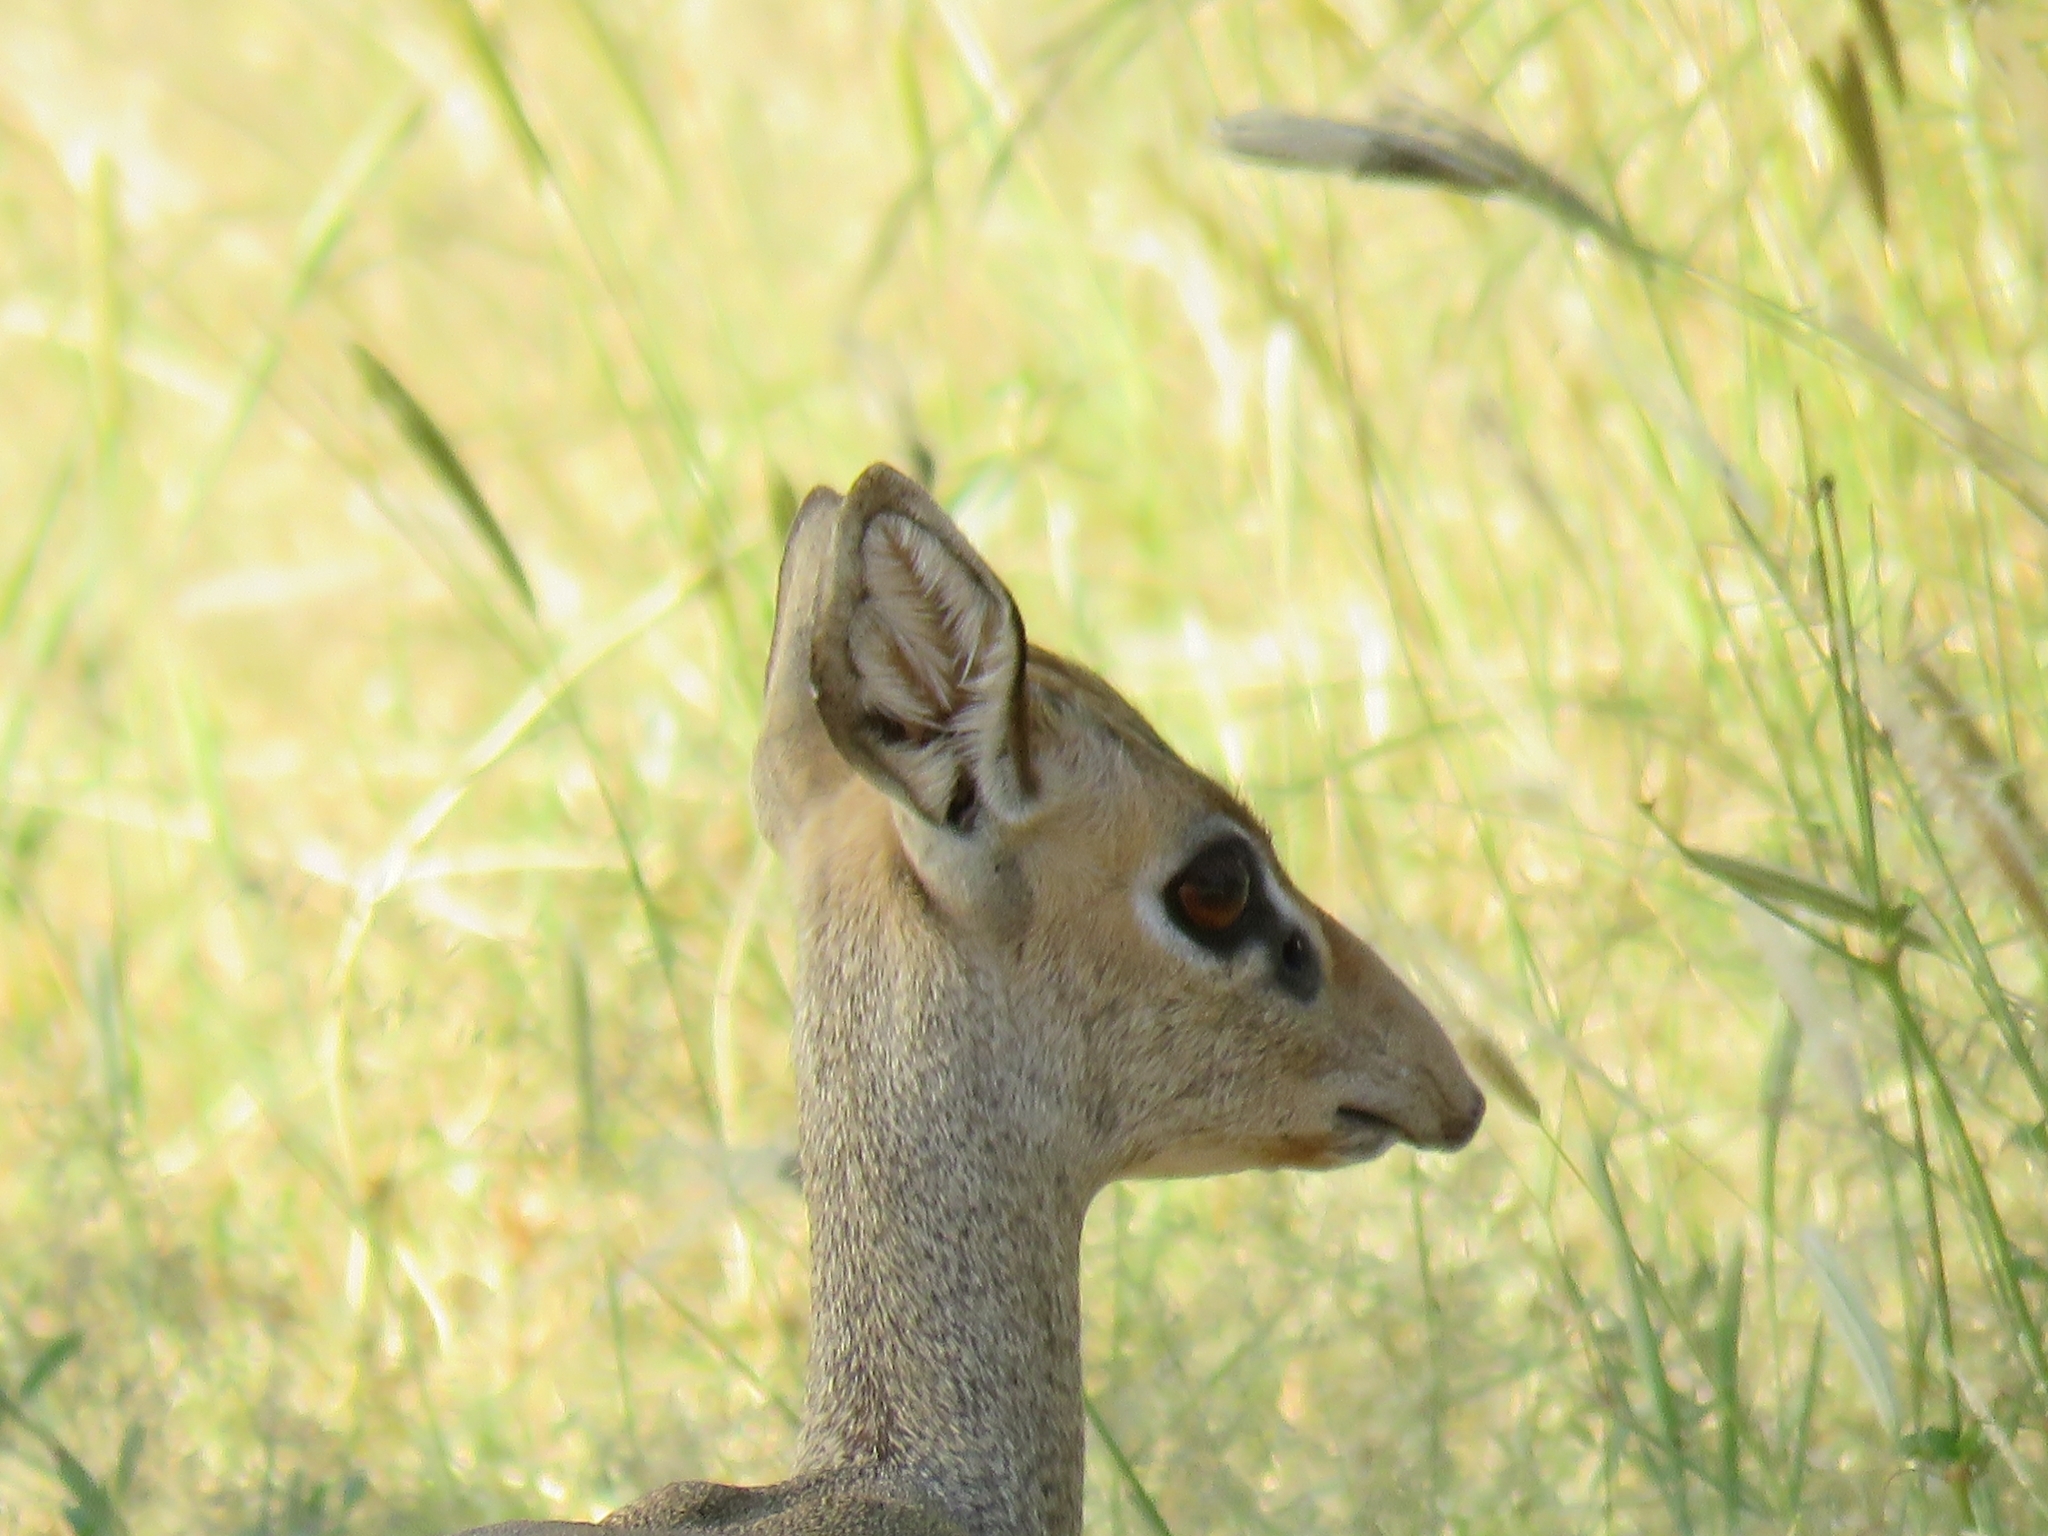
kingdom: Animalia
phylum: Chordata
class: Mammalia
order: Artiodactyla
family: Bovidae
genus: Madoqua
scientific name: Madoqua kirkii
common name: Kirk's dik-dik
